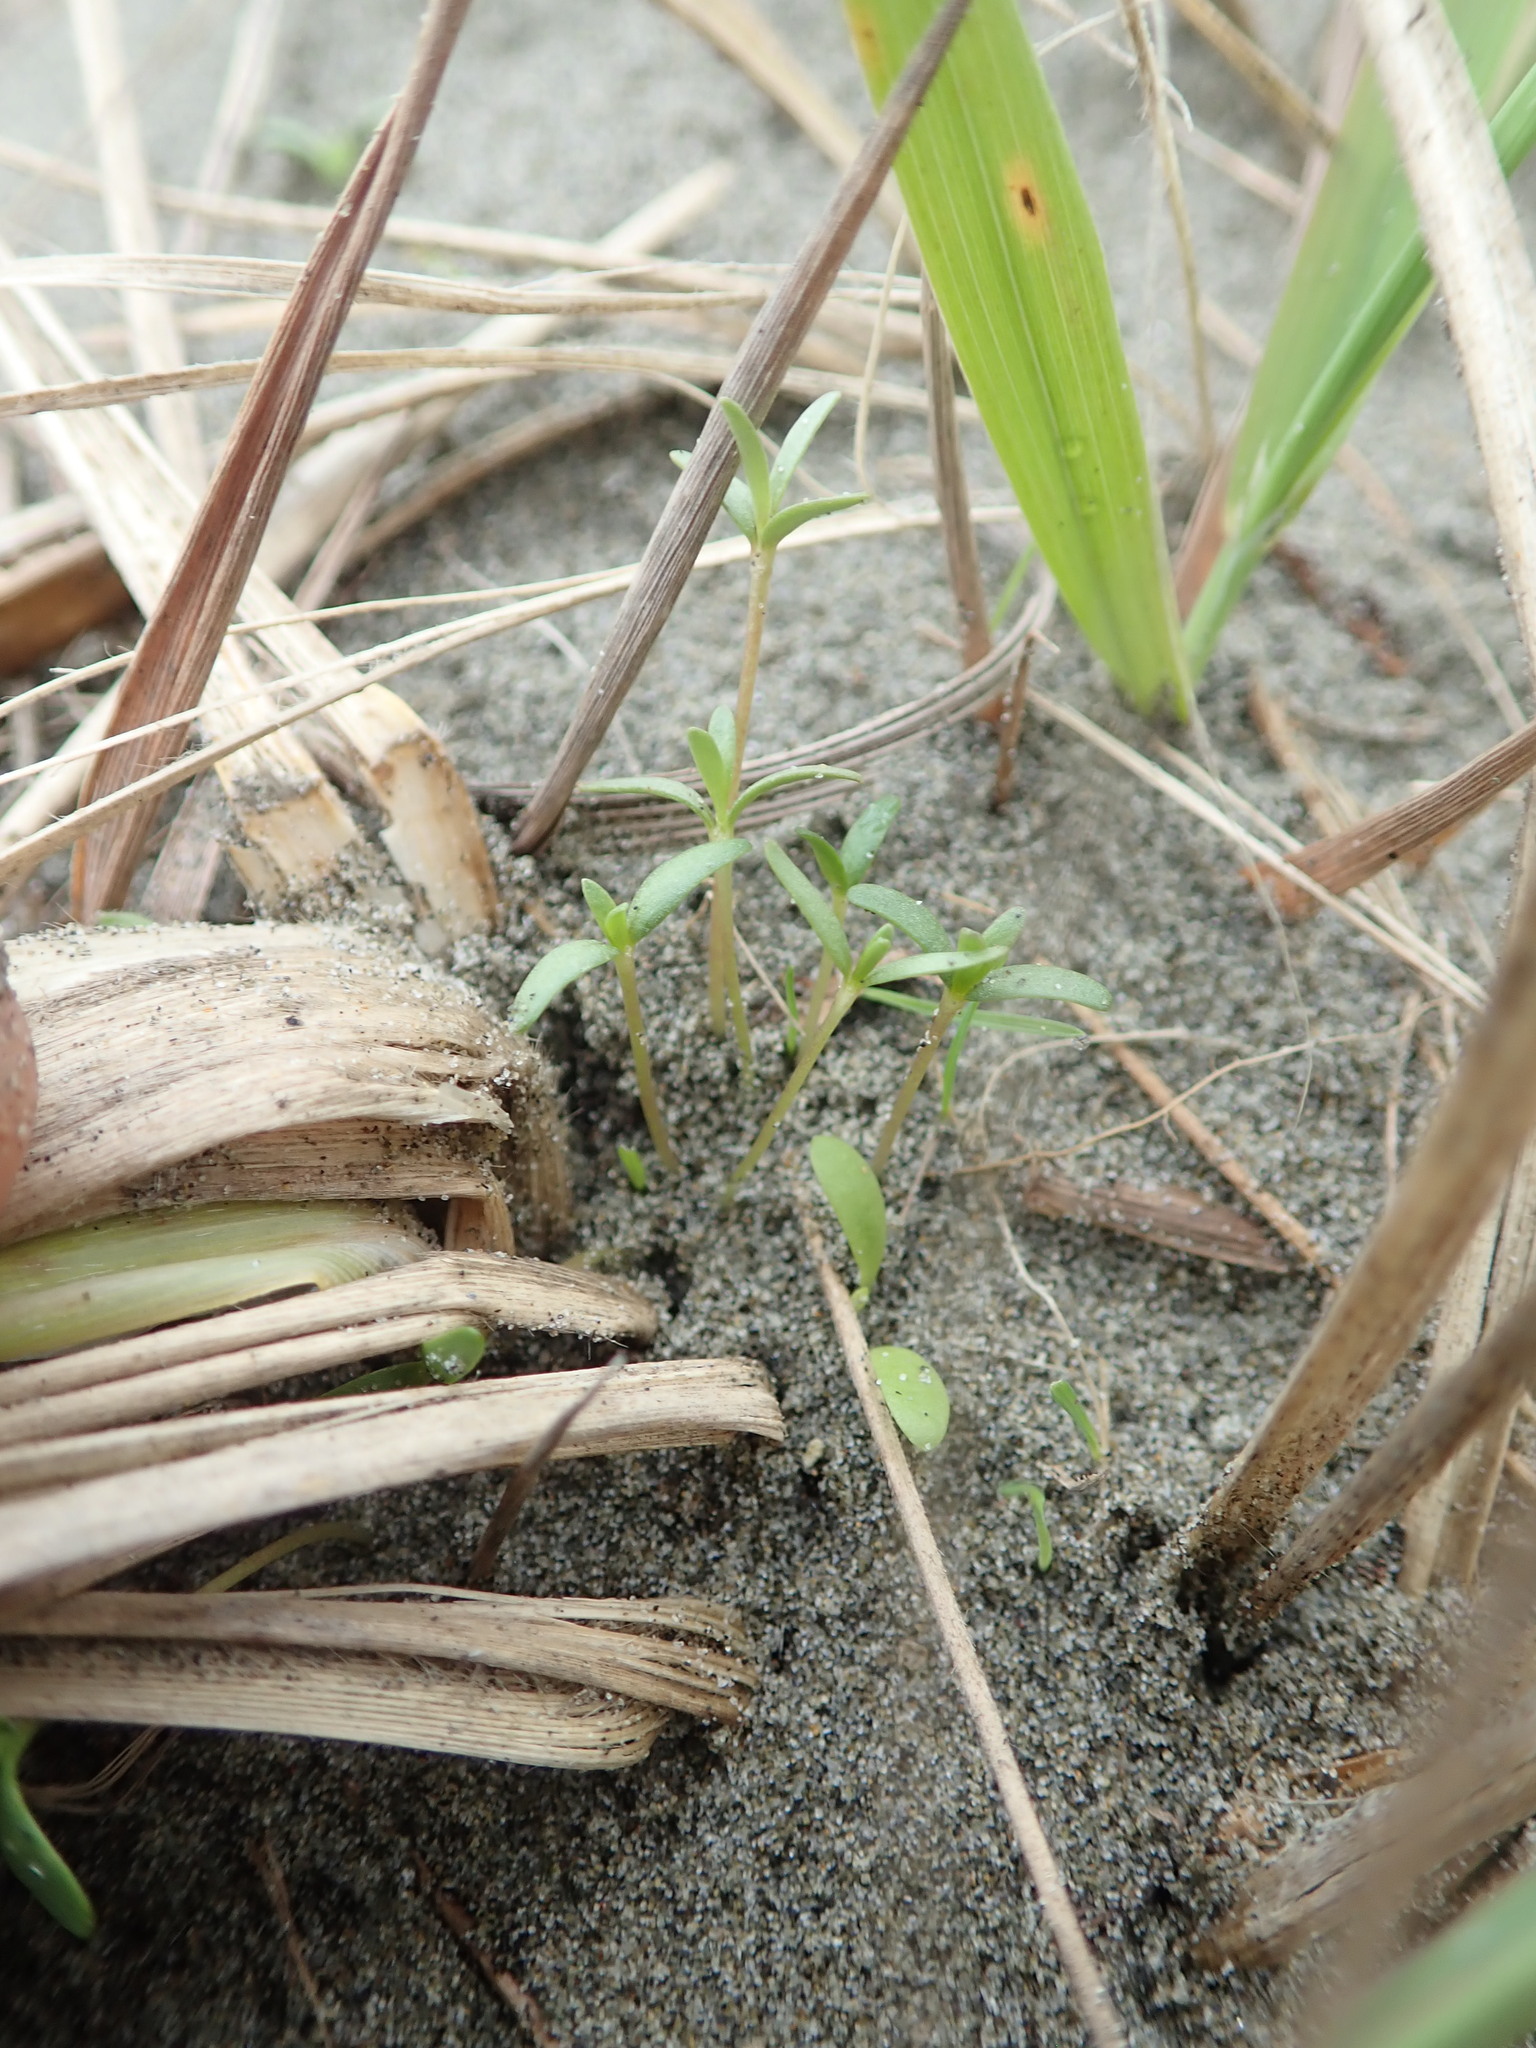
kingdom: Plantae
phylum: Tracheophyta
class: Magnoliopsida
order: Gentianales
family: Rubiaceae
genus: Coprosma
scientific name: Coprosma acerosa
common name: Sand coprosma
